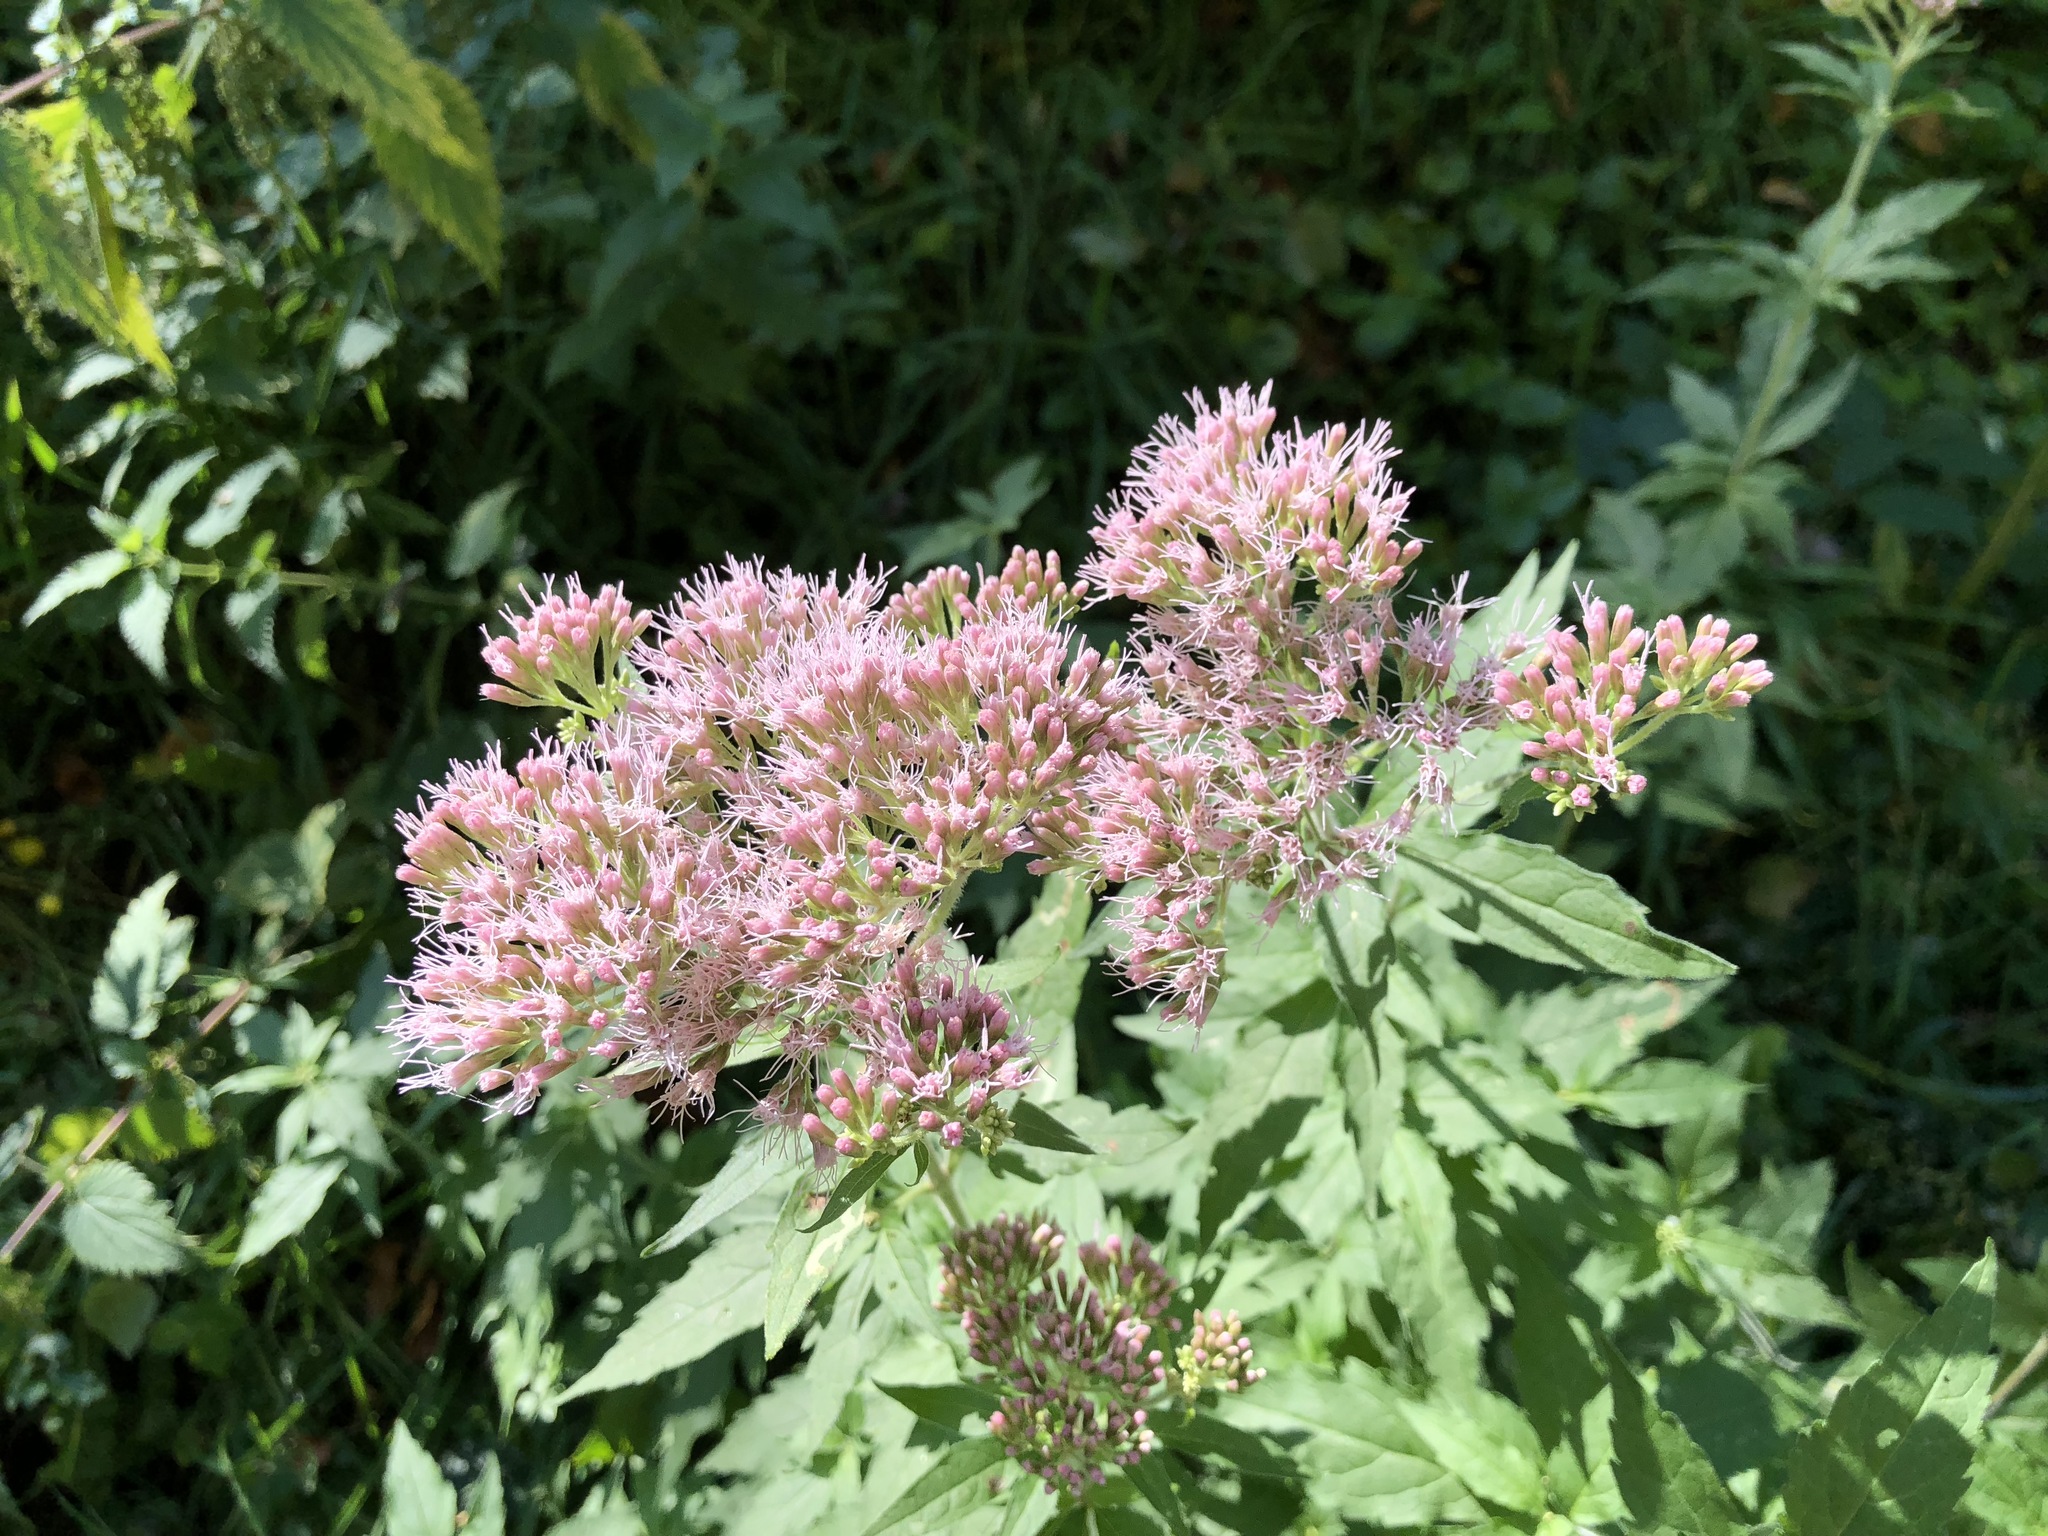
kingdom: Plantae
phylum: Tracheophyta
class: Magnoliopsida
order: Asterales
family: Asteraceae
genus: Eupatorium
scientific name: Eupatorium cannabinum
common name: Hemp-agrimony
